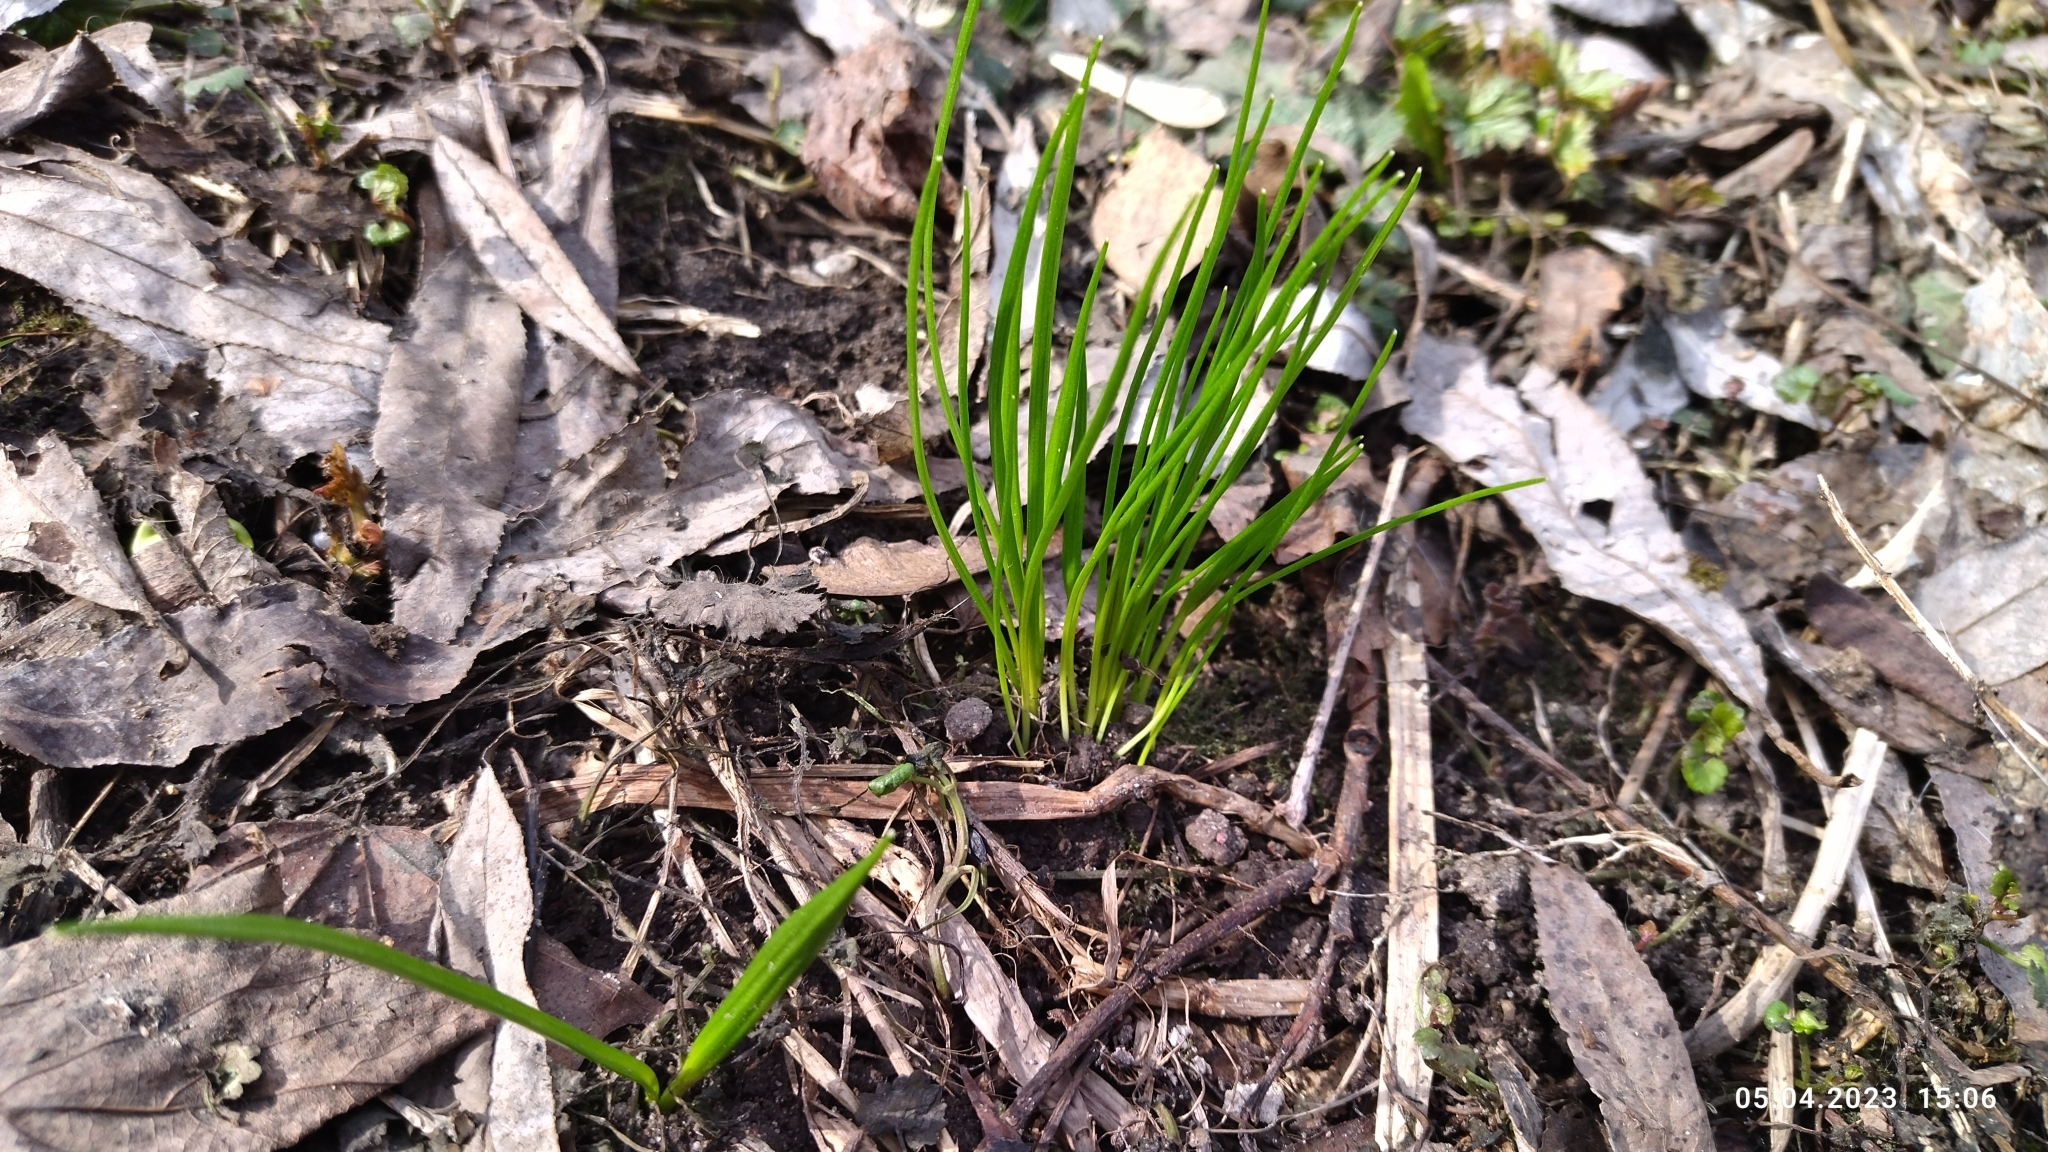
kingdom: Plantae
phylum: Tracheophyta
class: Liliopsida
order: Liliales
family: Liliaceae
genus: Gagea
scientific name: Gagea minima
